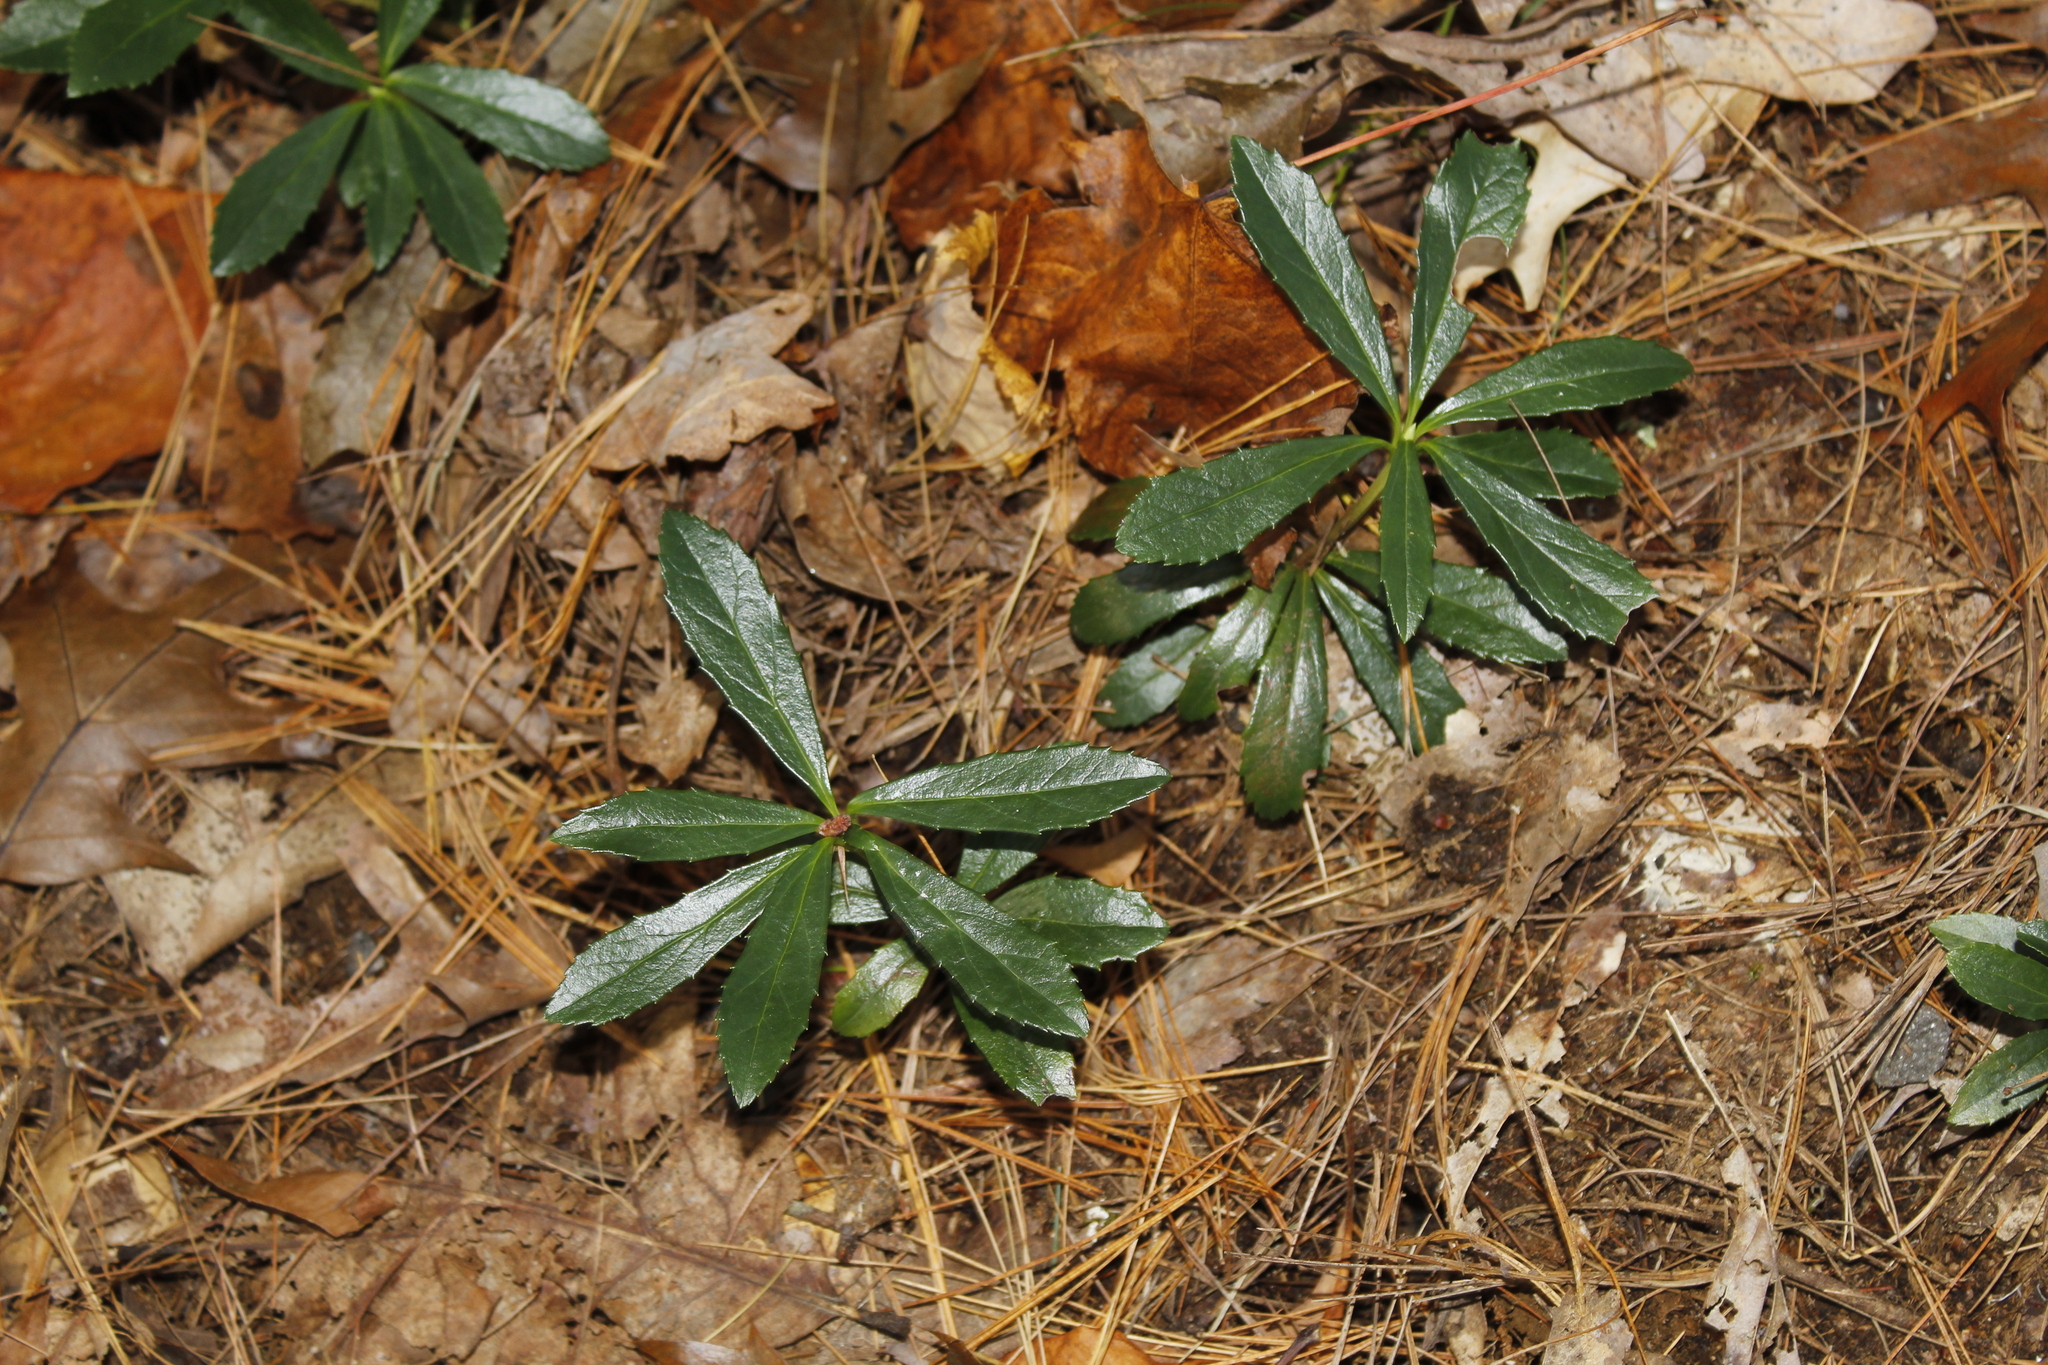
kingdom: Plantae
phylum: Tracheophyta
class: Magnoliopsida
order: Ericales
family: Ericaceae
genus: Chimaphila
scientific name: Chimaphila umbellata
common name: Pipsissewa
